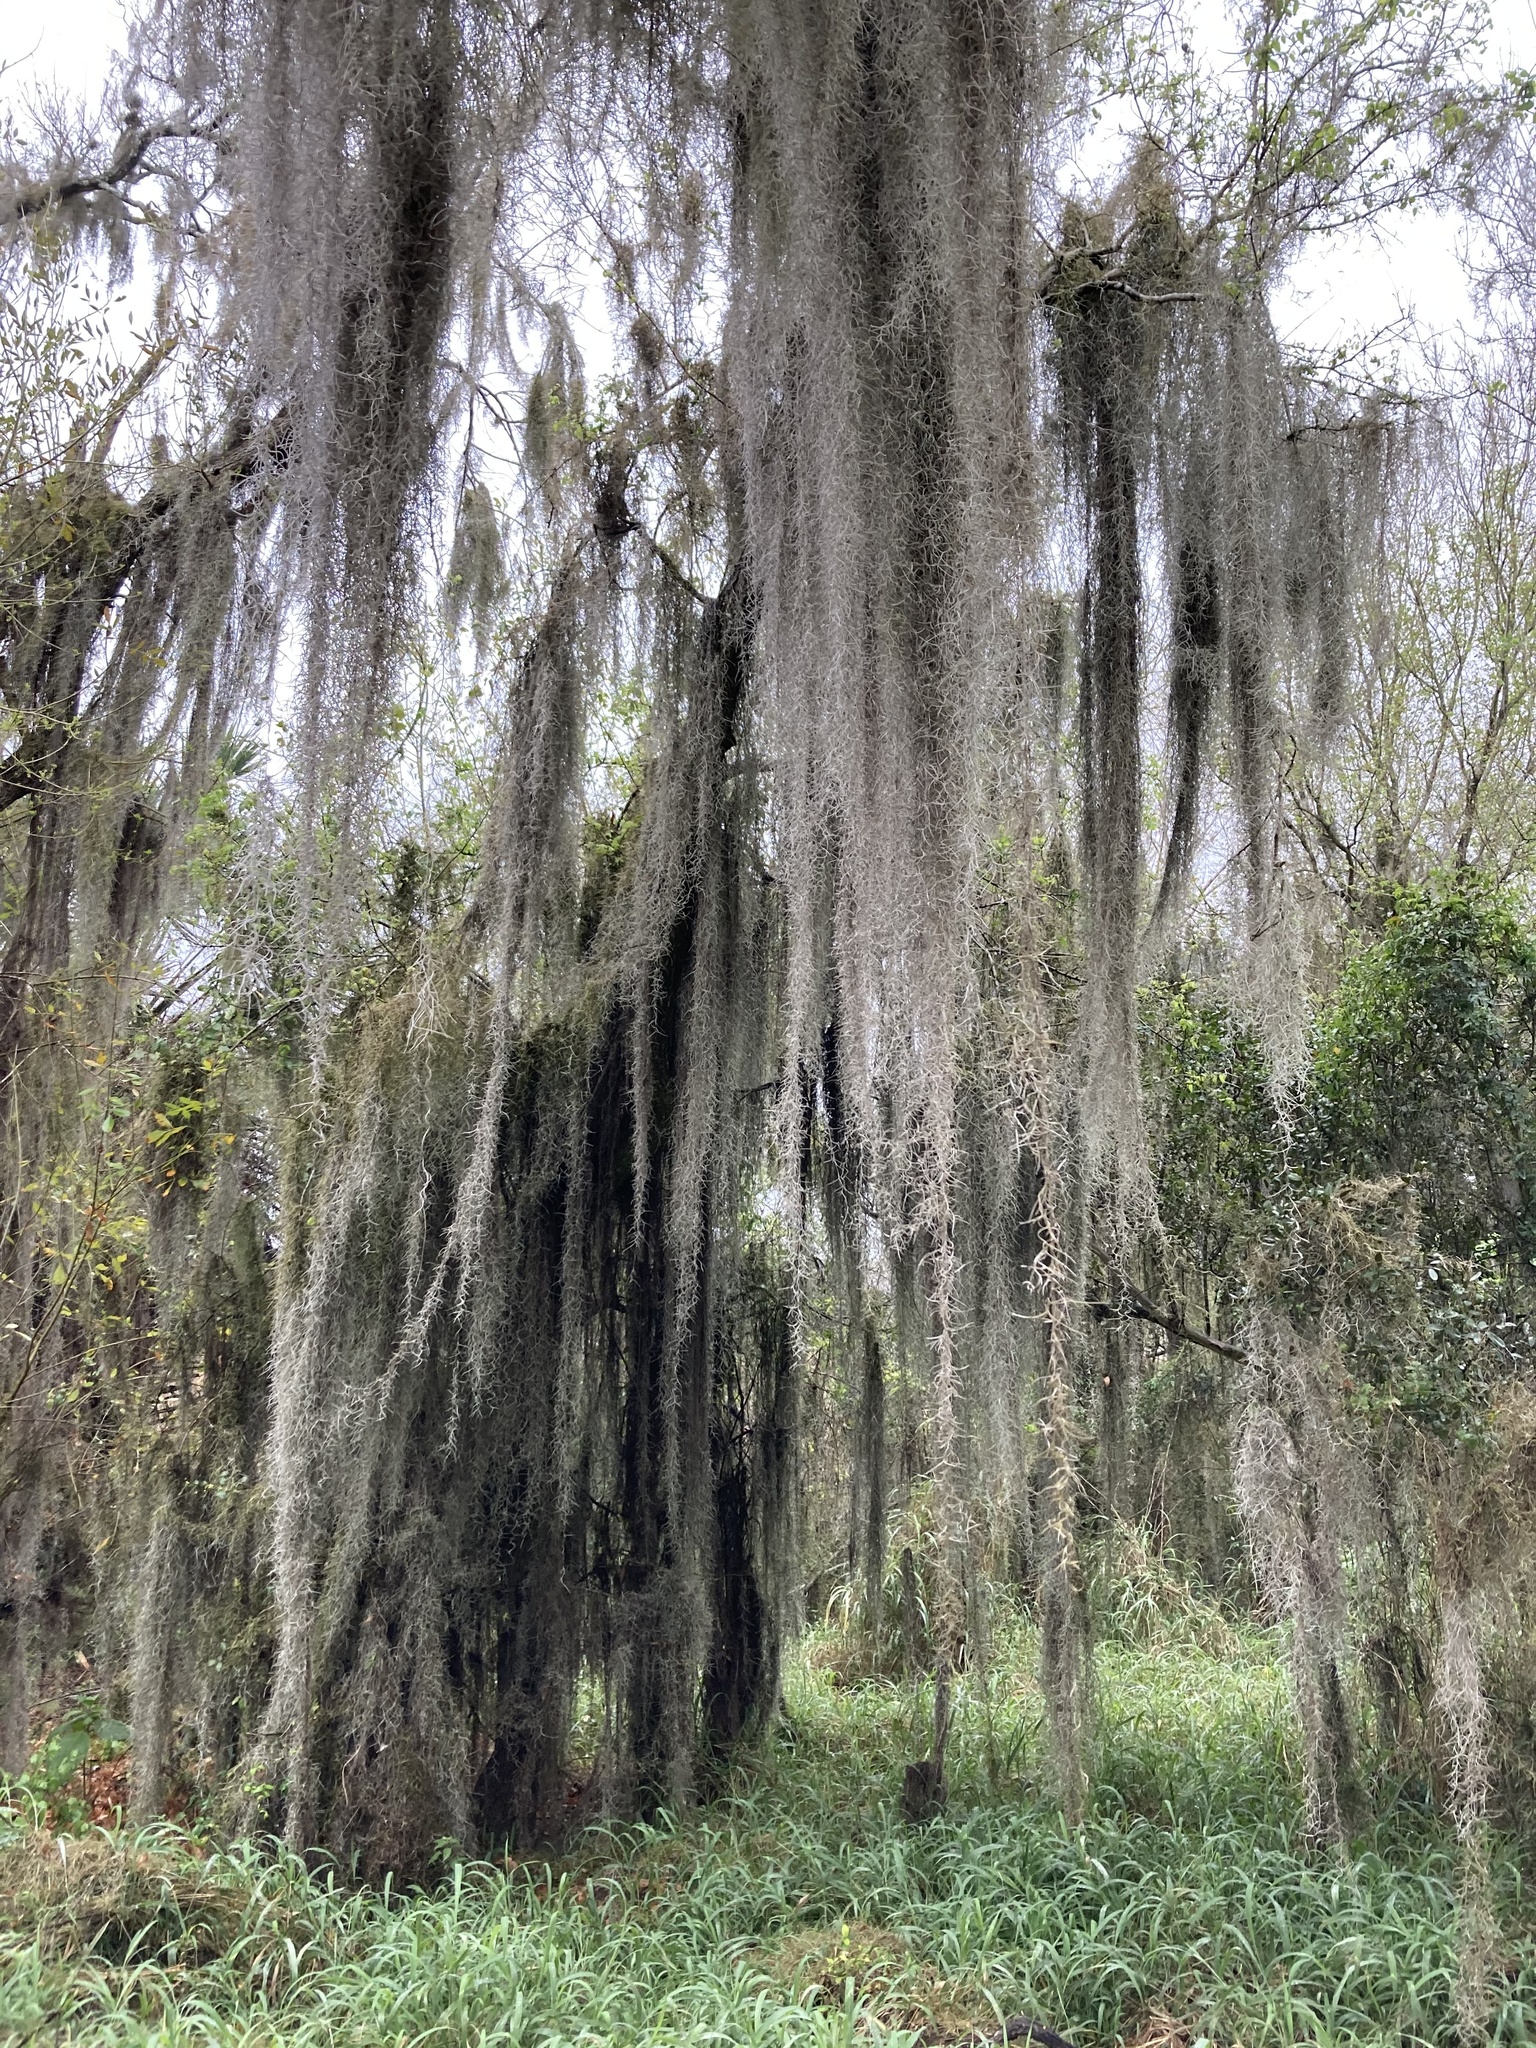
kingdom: Plantae
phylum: Tracheophyta
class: Liliopsida
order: Poales
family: Bromeliaceae
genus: Tillandsia
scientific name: Tillandsia usneoides
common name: Spanish moss
